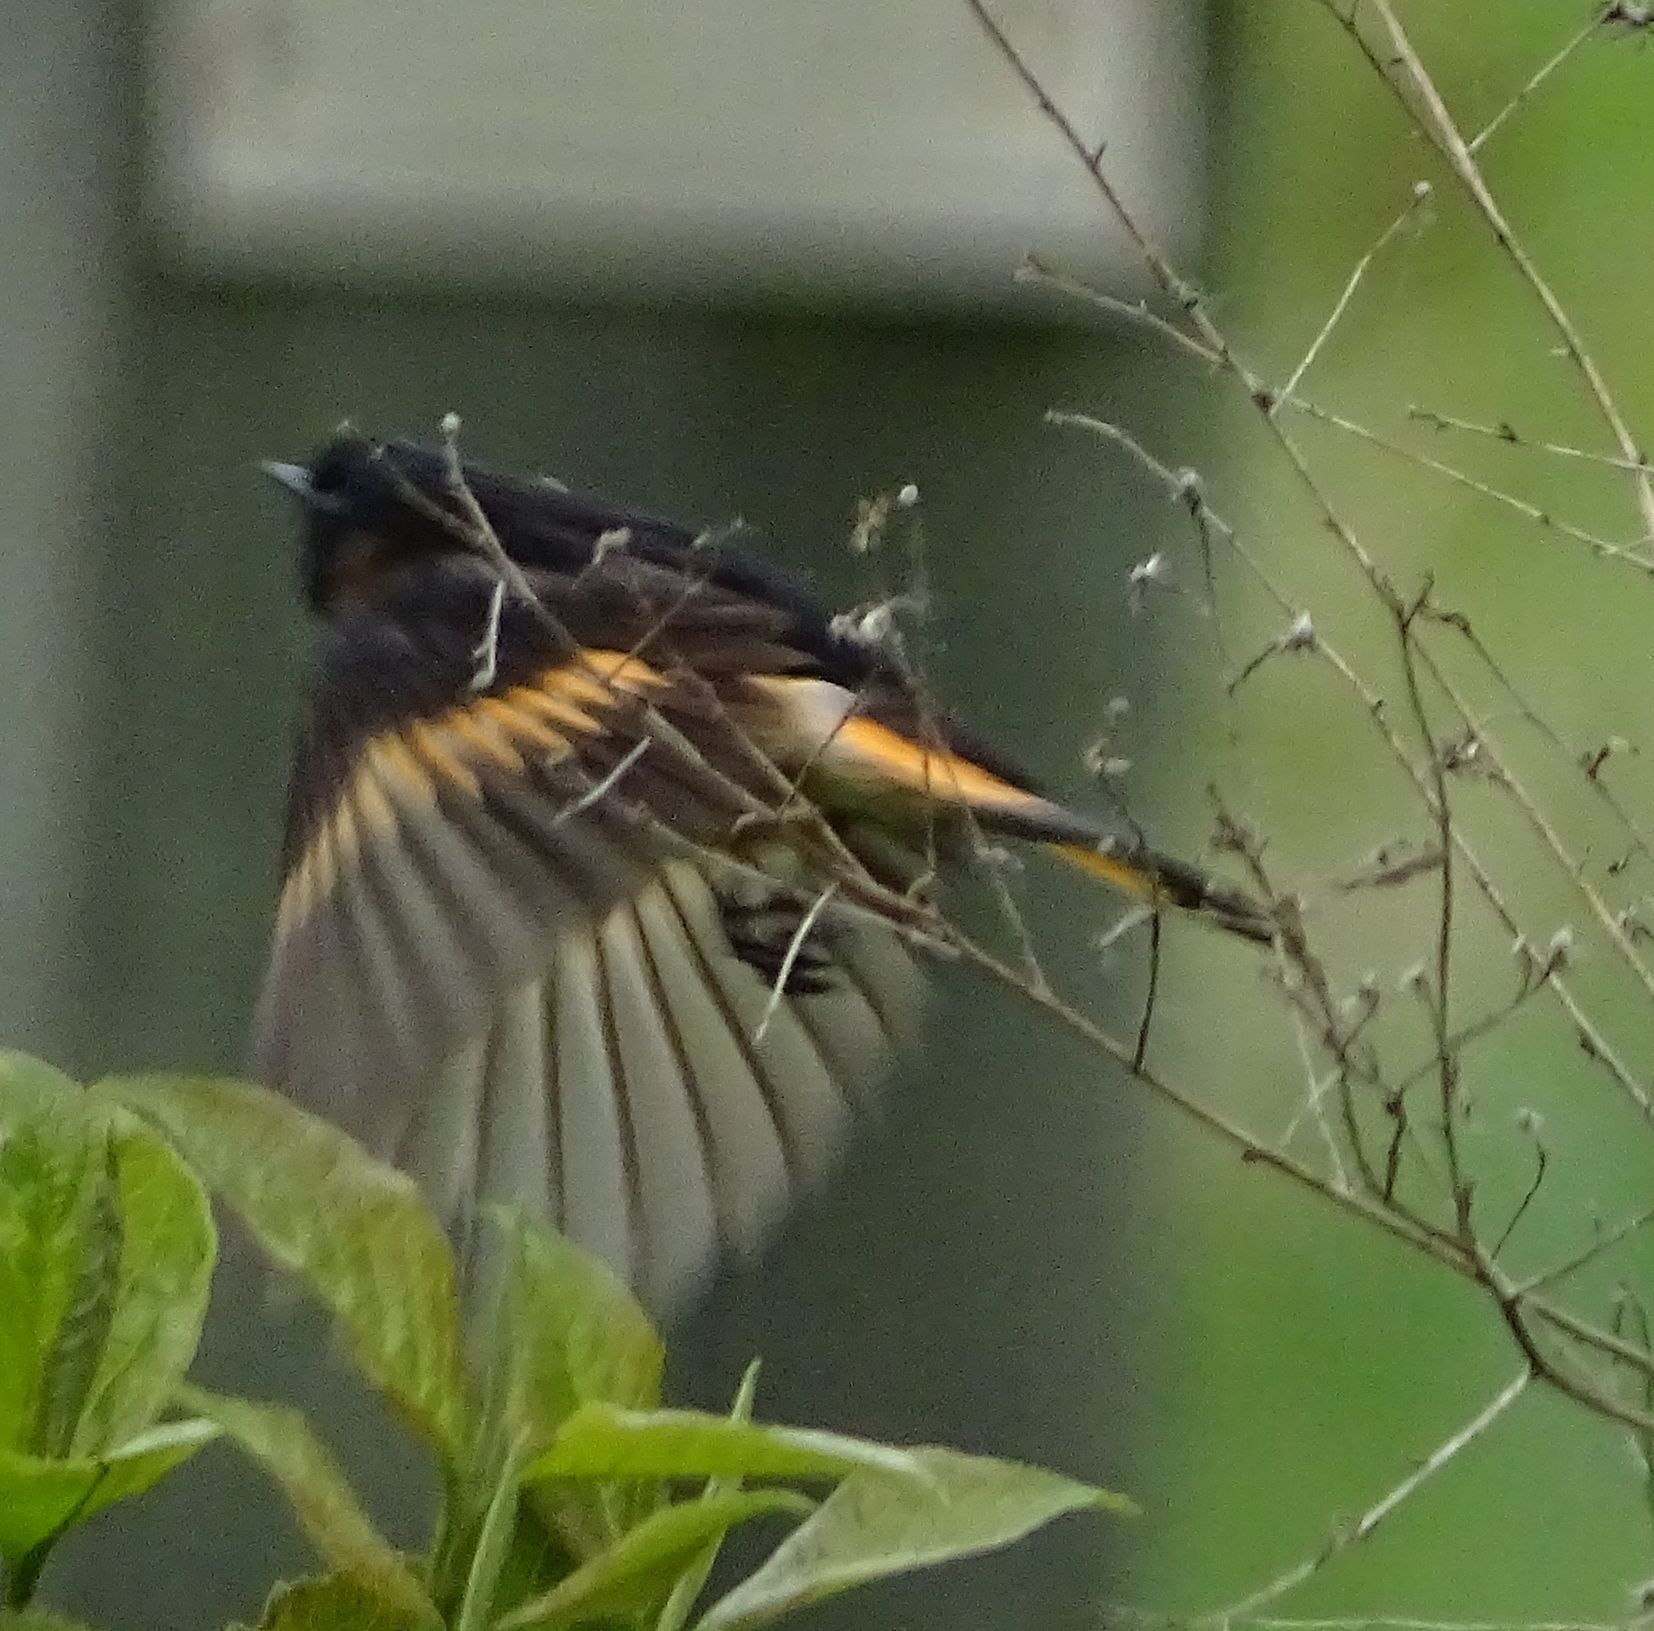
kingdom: Animalia
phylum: Chordata
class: Aves
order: Passeriformes
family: Parulidae
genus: Setophaga
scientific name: Setophaga ruticilla
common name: American redstart
